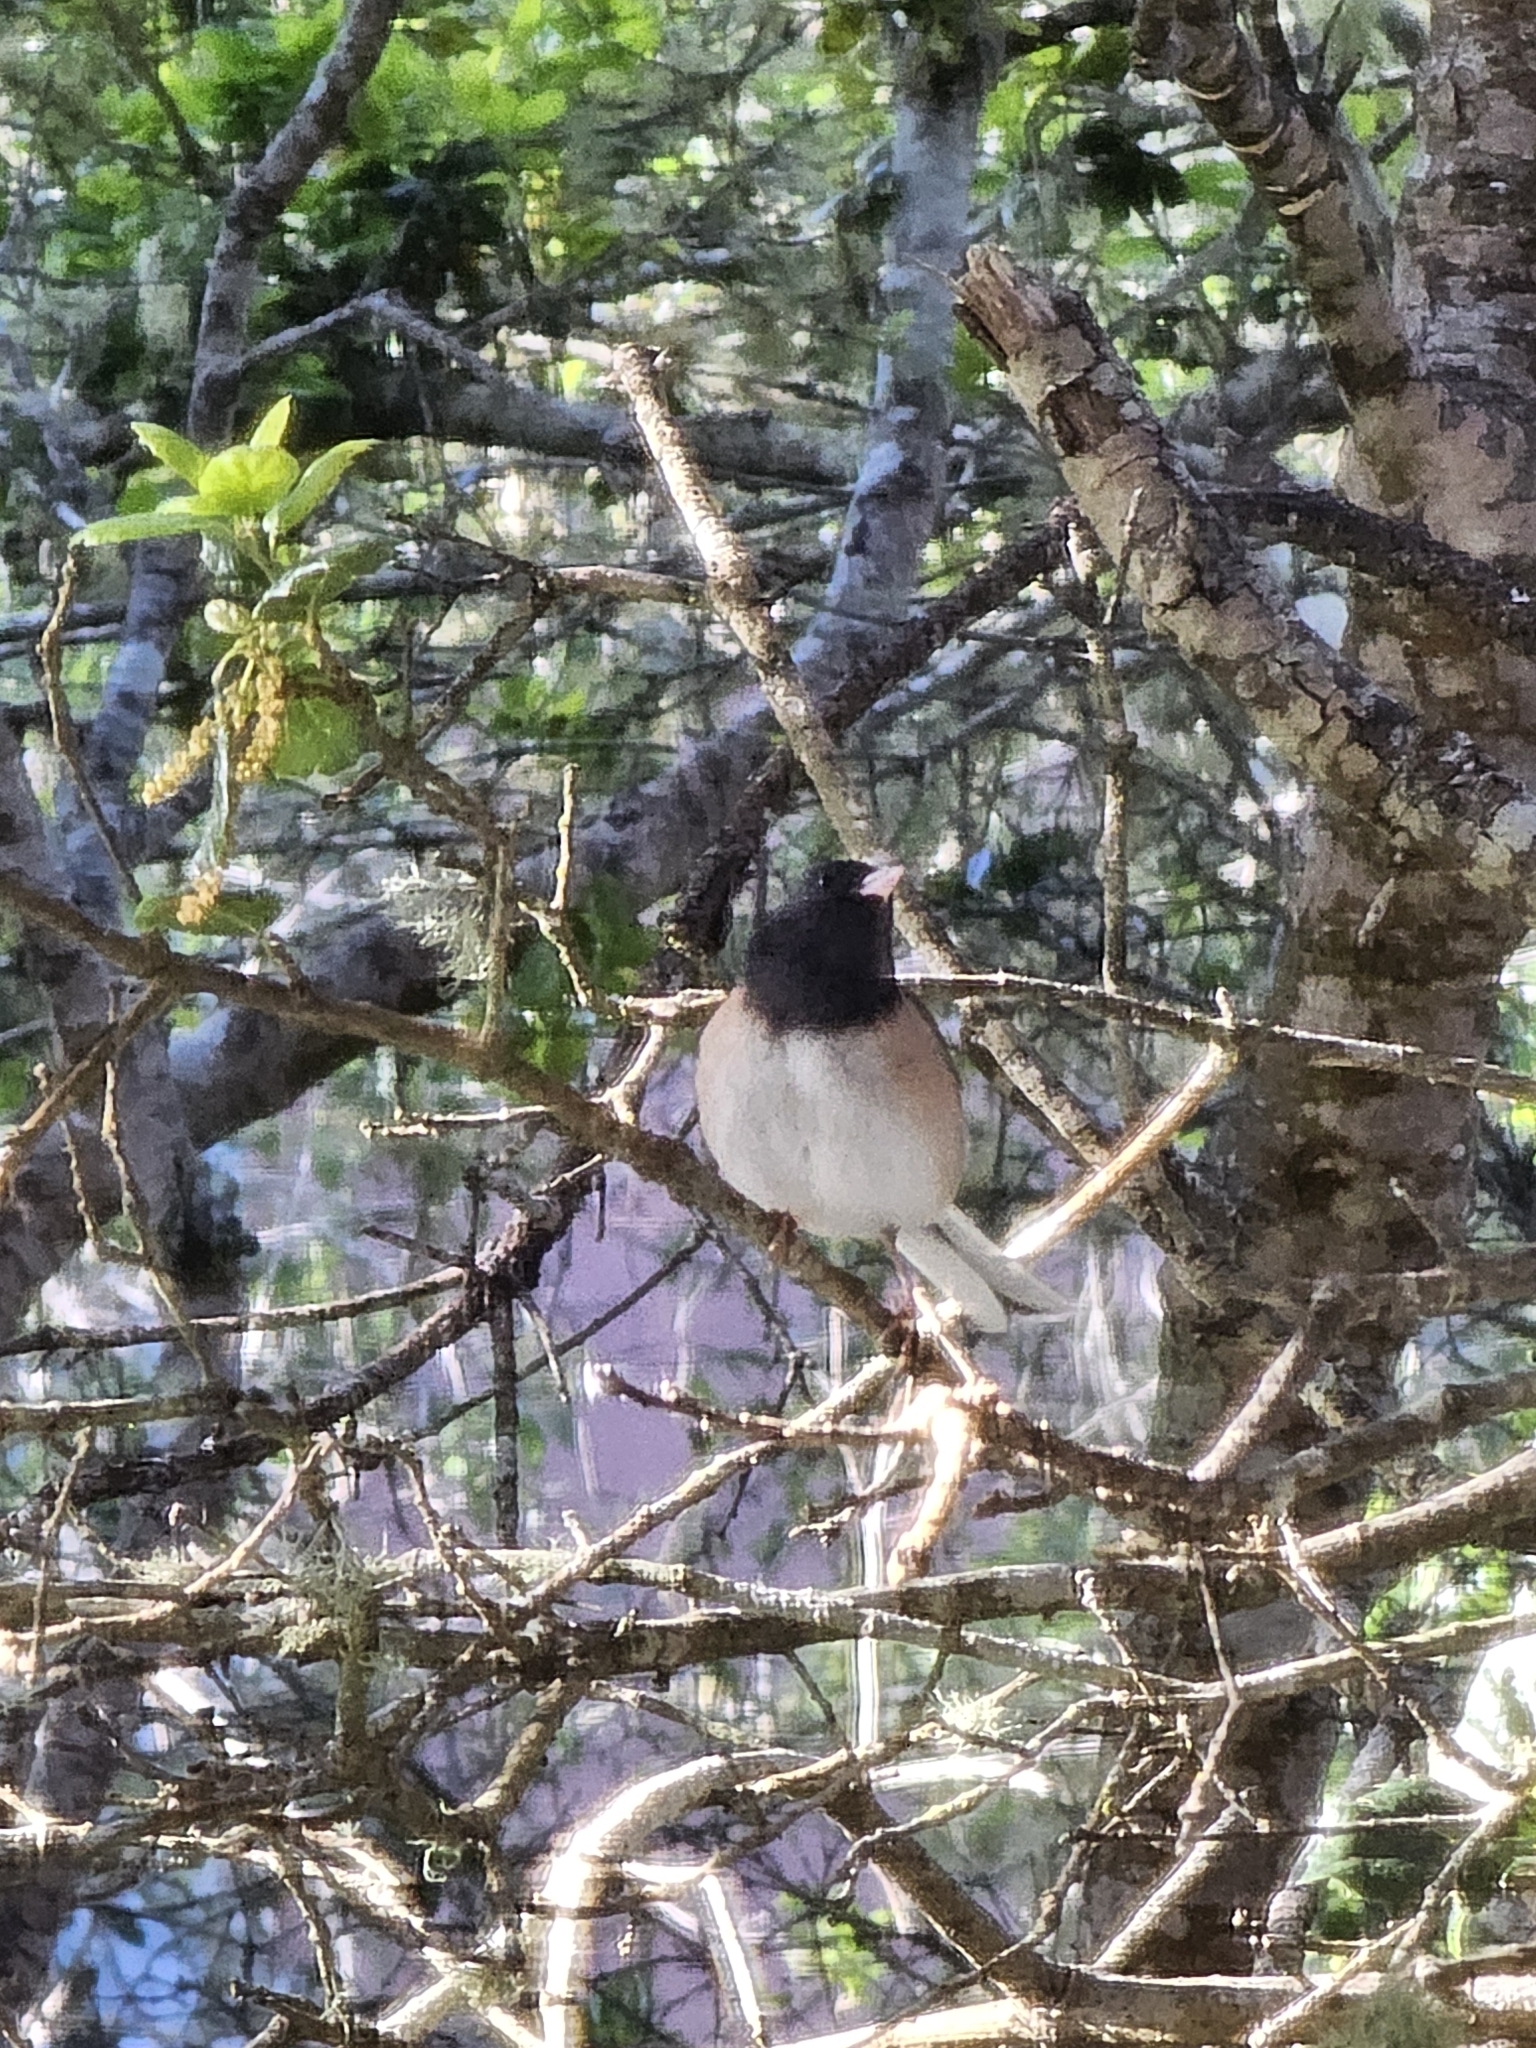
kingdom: Animalia
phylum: Chordata
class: Aves
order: Passeriformes
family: Passerellidae
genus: Junco
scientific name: Junco hyemalis
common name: Dark-eyed junco
